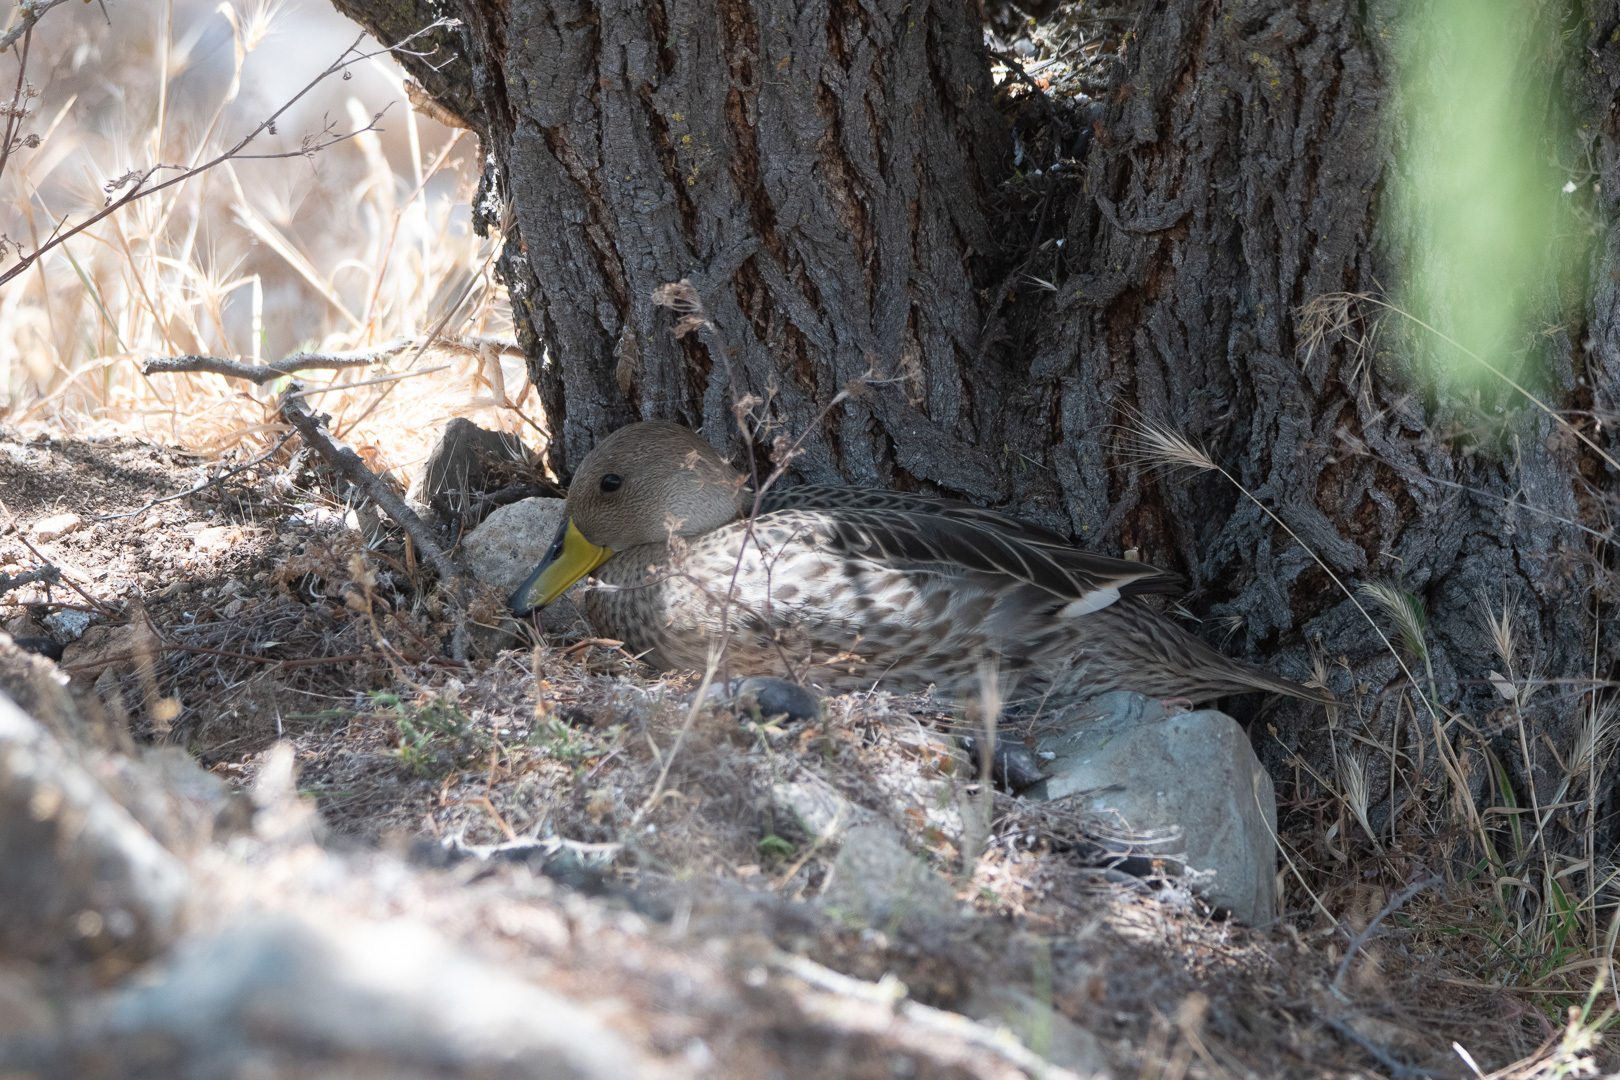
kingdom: Animalia
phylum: Chordata
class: Aves
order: Anseriformes
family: Anatidae
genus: Anas
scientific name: Anas georgica
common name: Yellow-billed pintail
